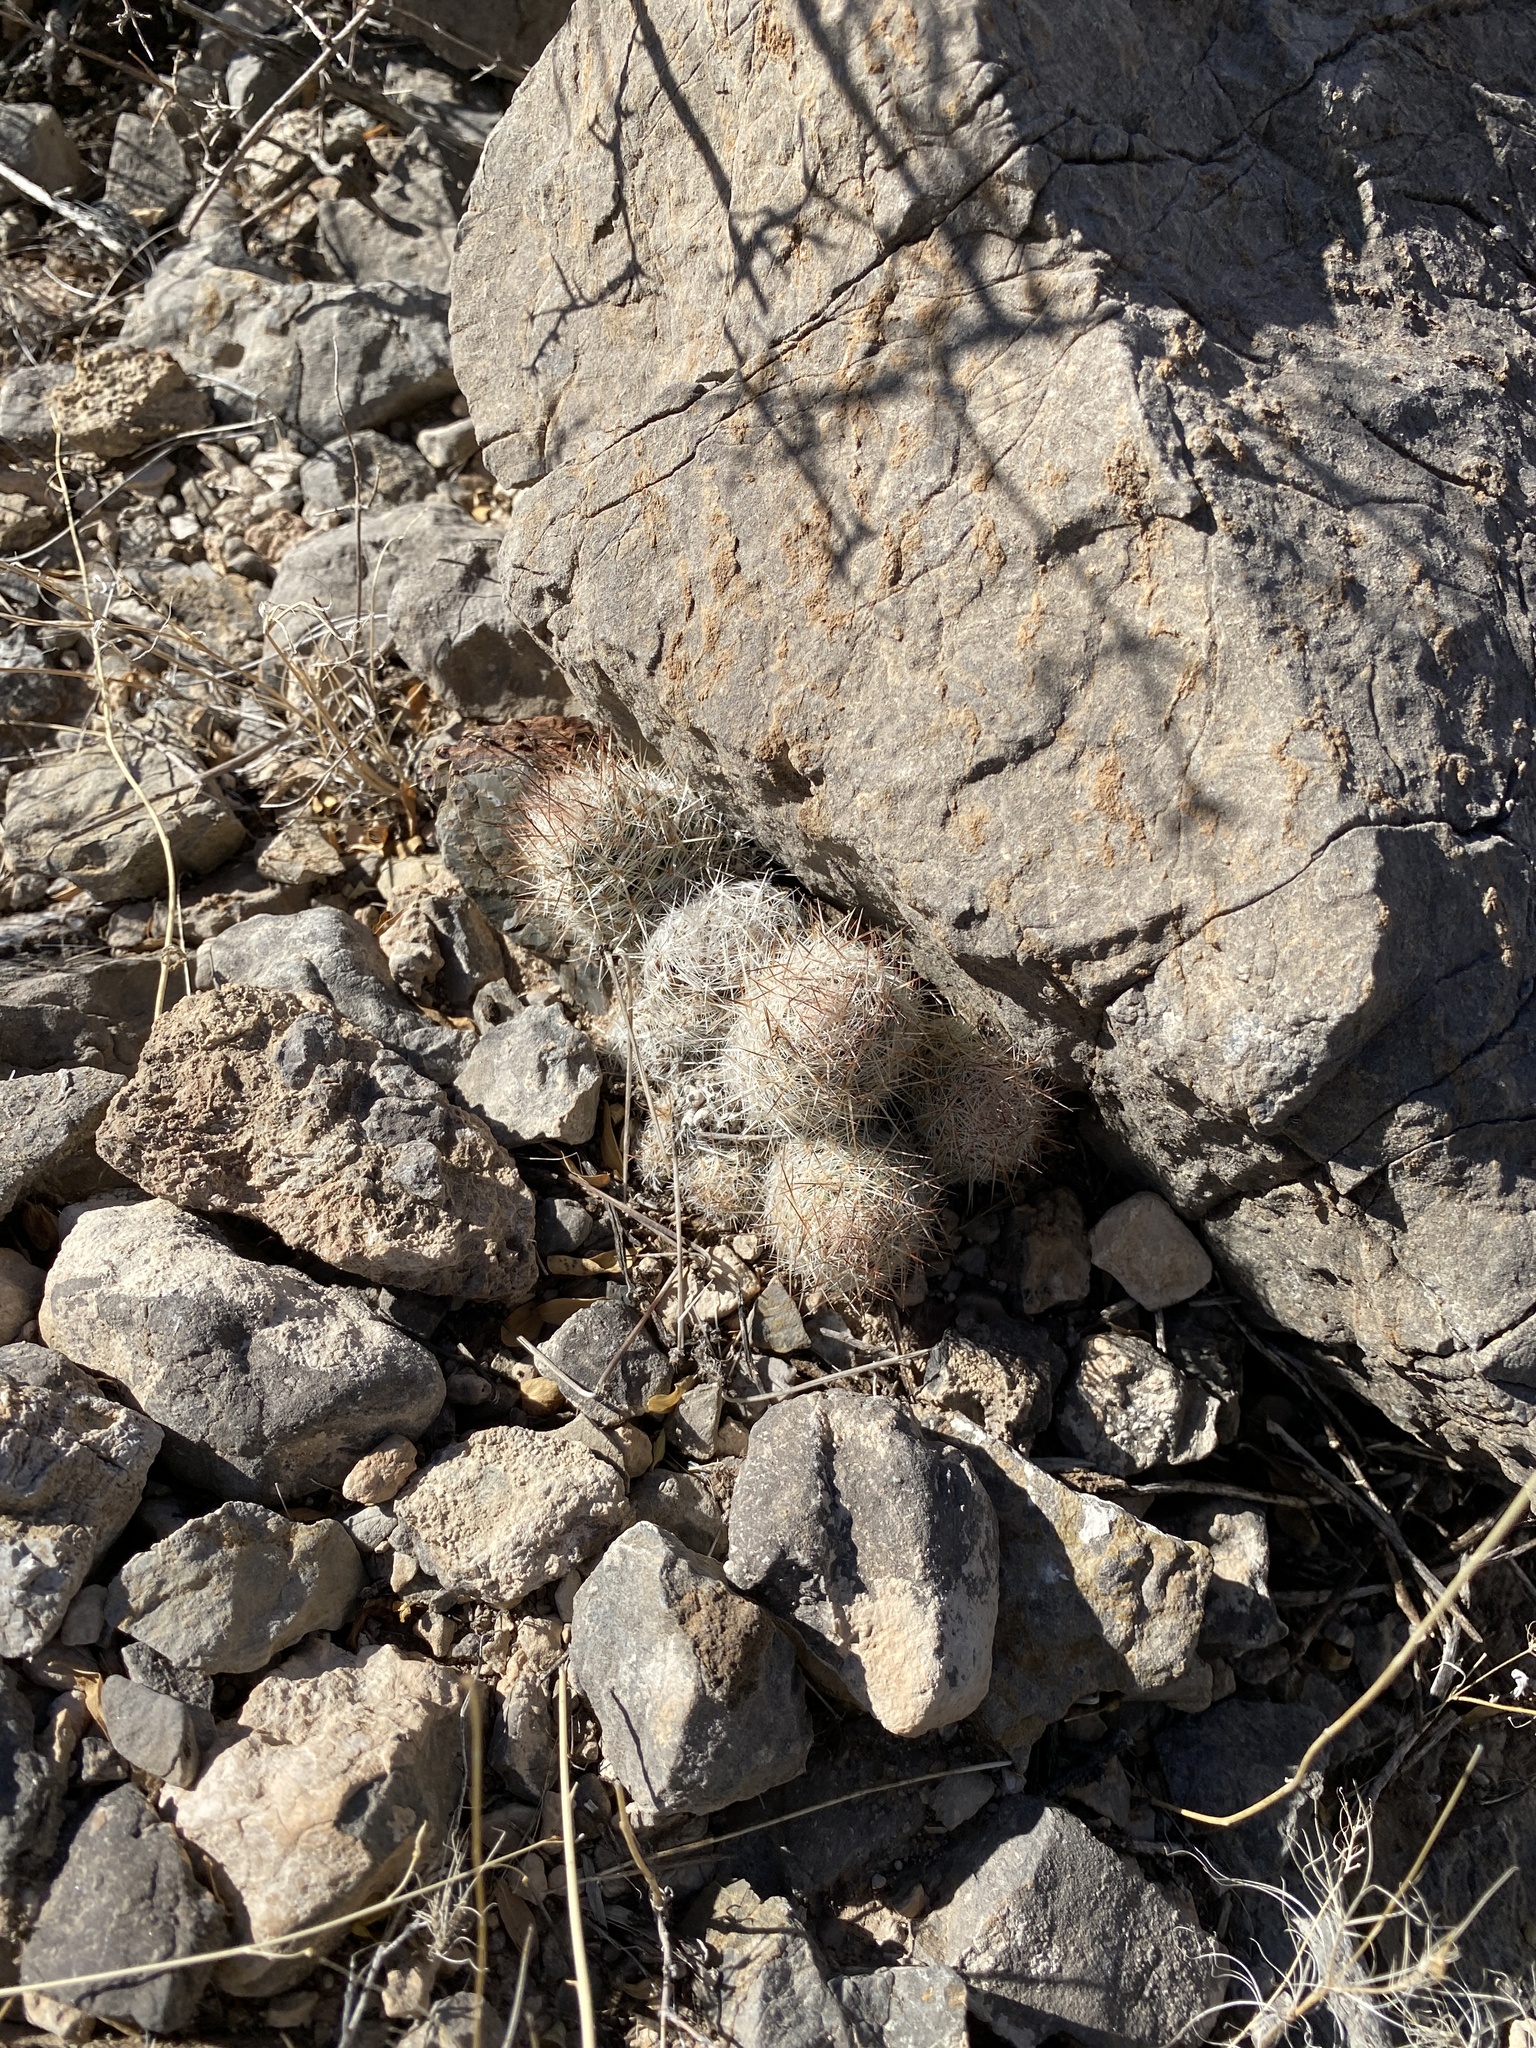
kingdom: Plantae
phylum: Tracheophyta
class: Magnoliopsida
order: Caryophyllales
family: Cactaceae
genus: Pelecyphora
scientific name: Pelecyphora tuberculosa
